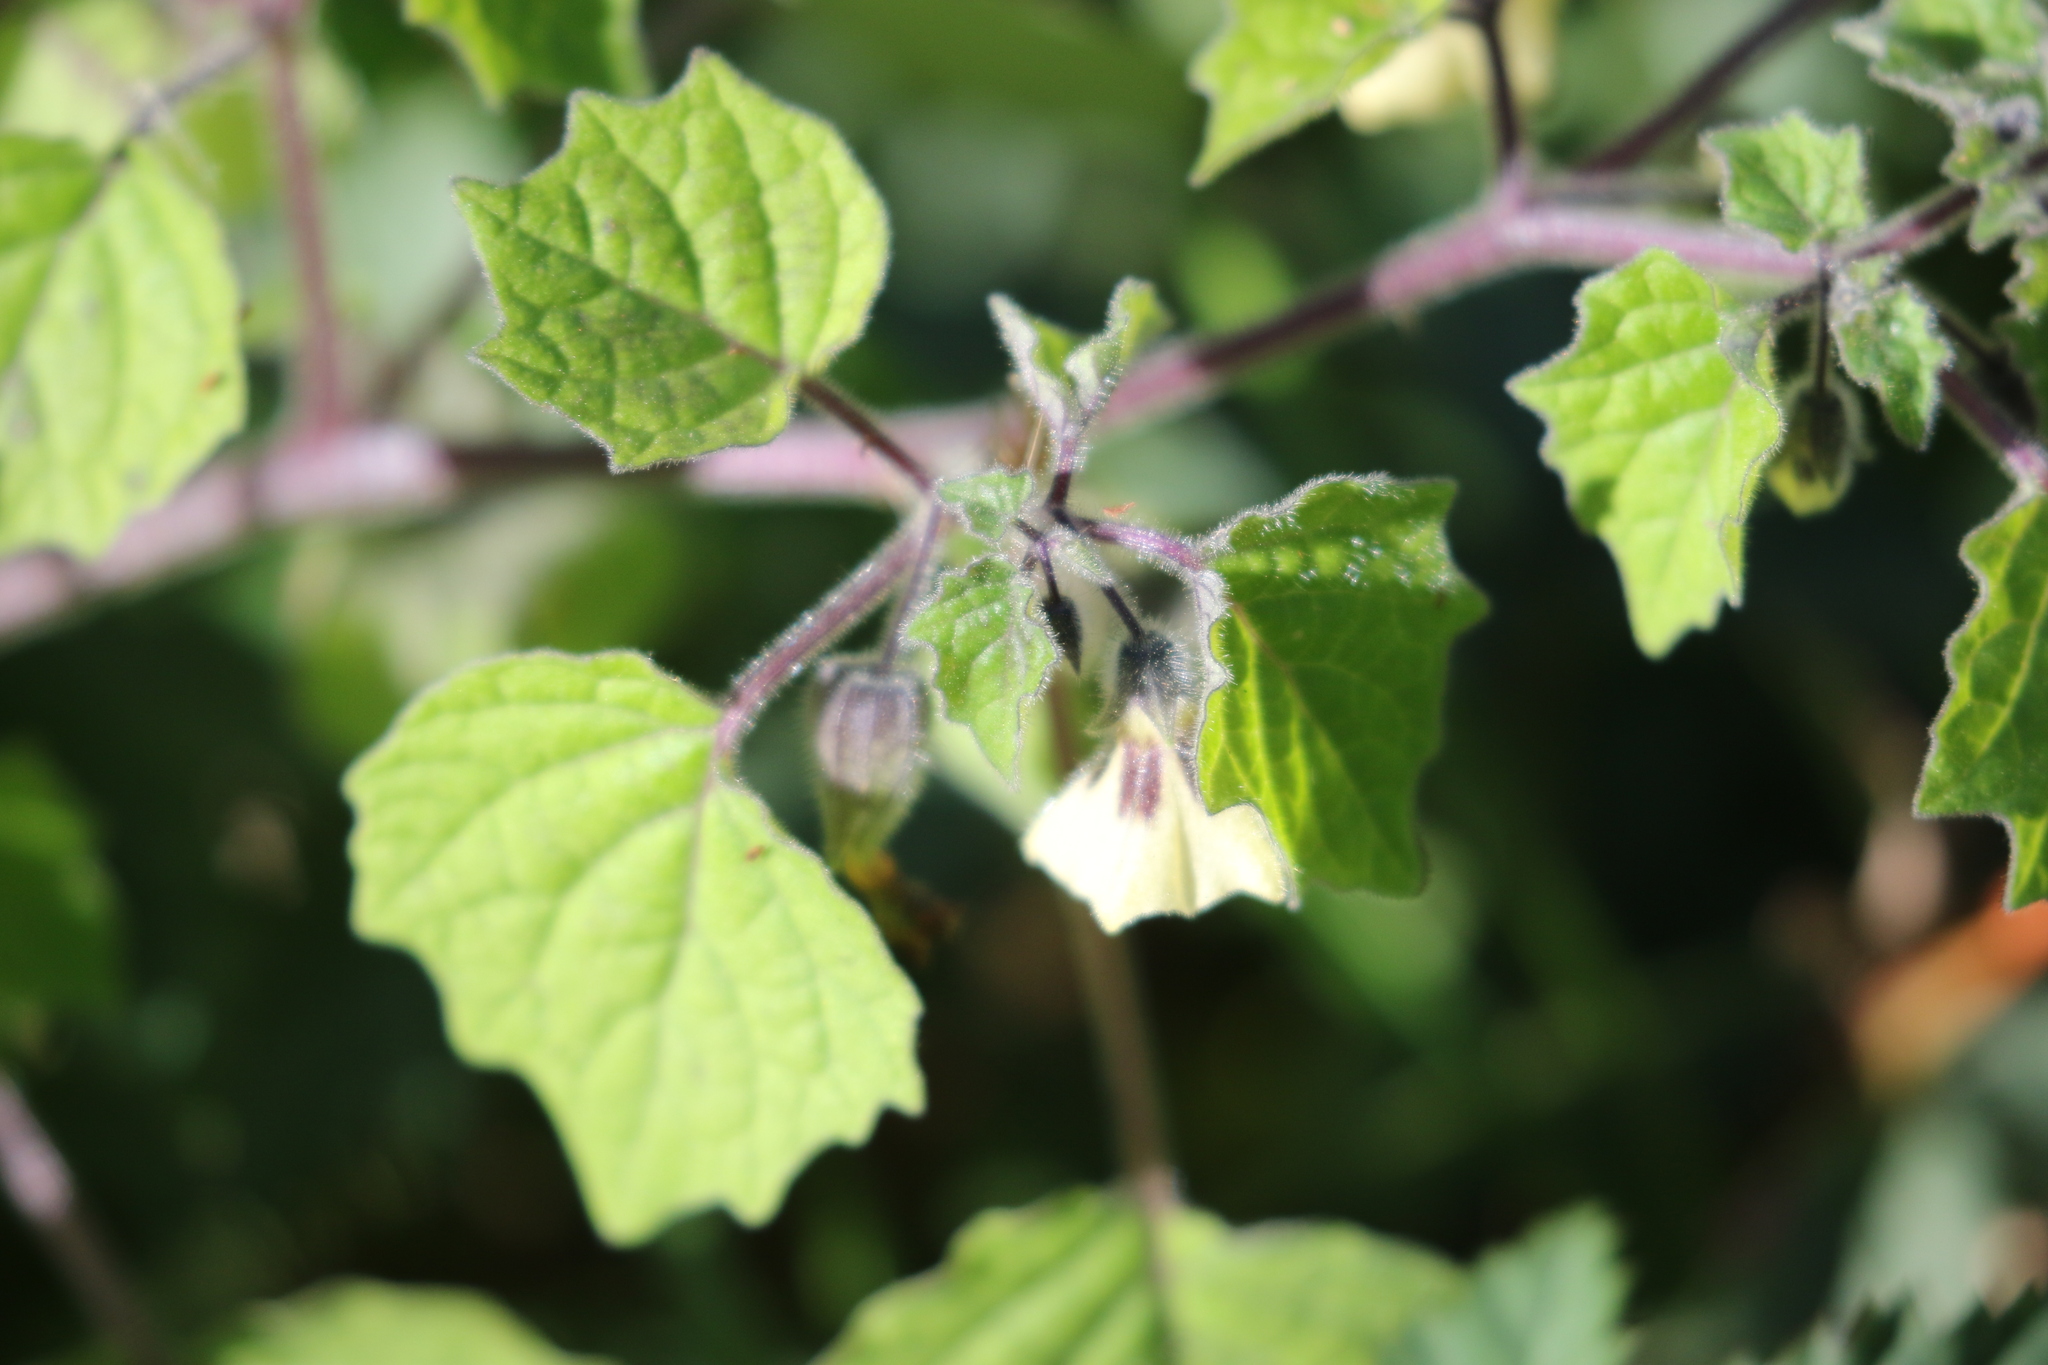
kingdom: Plantae
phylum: Tracheophyta
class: Magnoliopsida
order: Solanales
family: Solanaceae
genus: Physalis
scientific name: Physalis pubescens
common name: Downy ground-cherry
